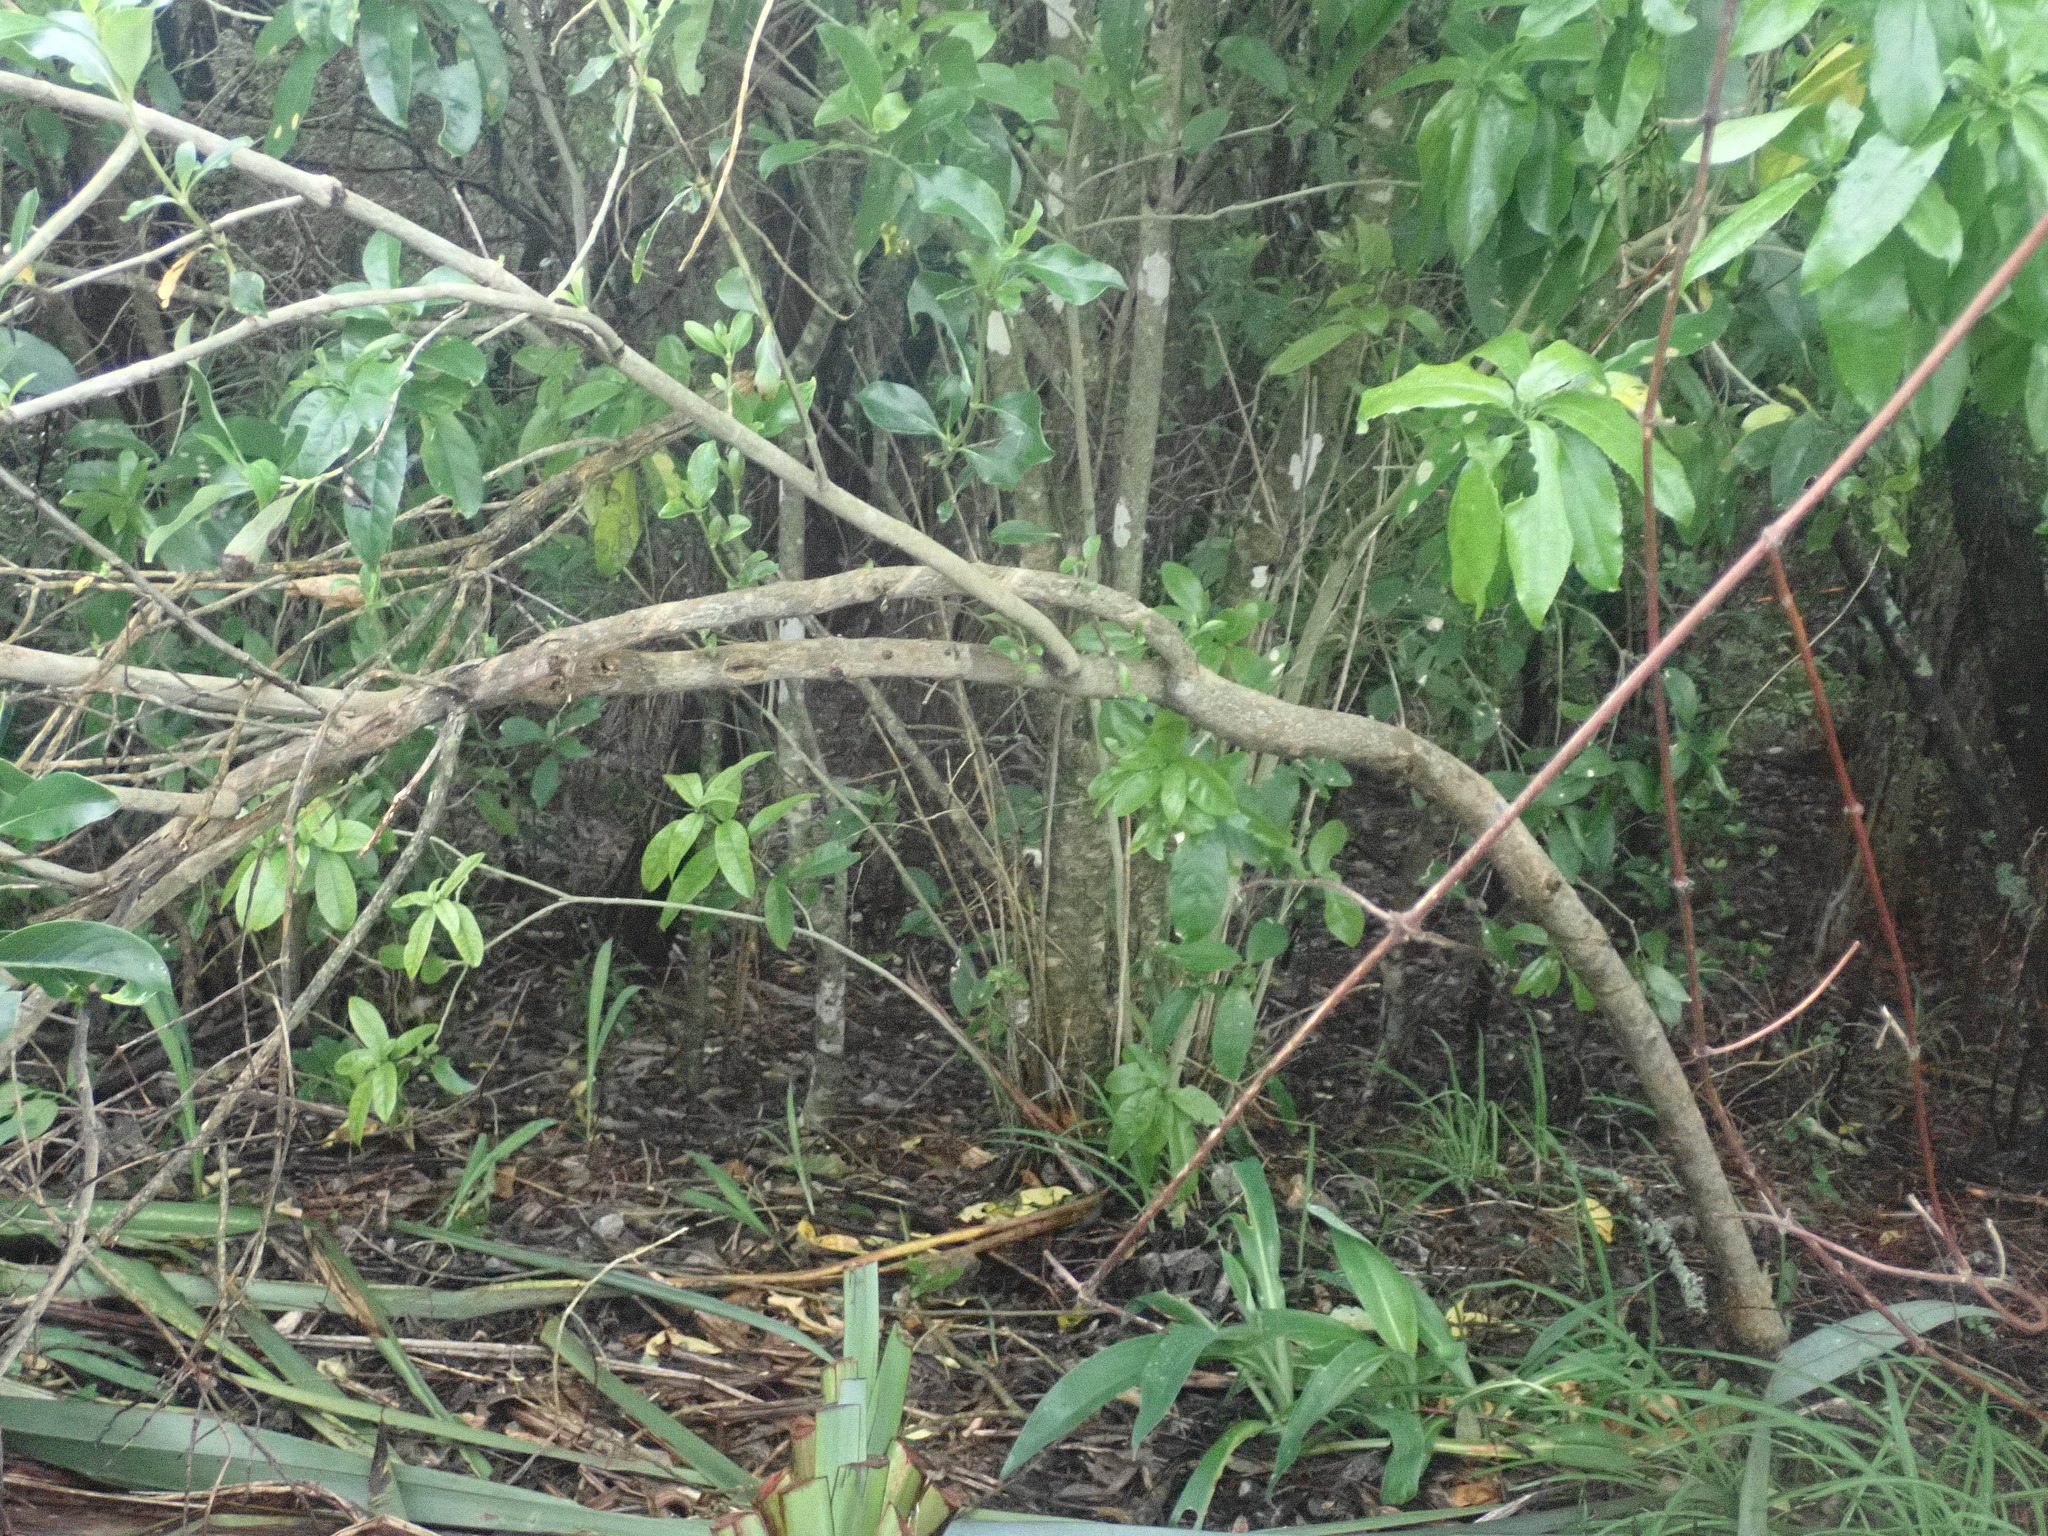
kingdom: Plantae
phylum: Tracheophyta
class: Magnoliopsida
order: Gentianales
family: Rubiaceae
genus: Coprosma
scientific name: Coprosma robusta
